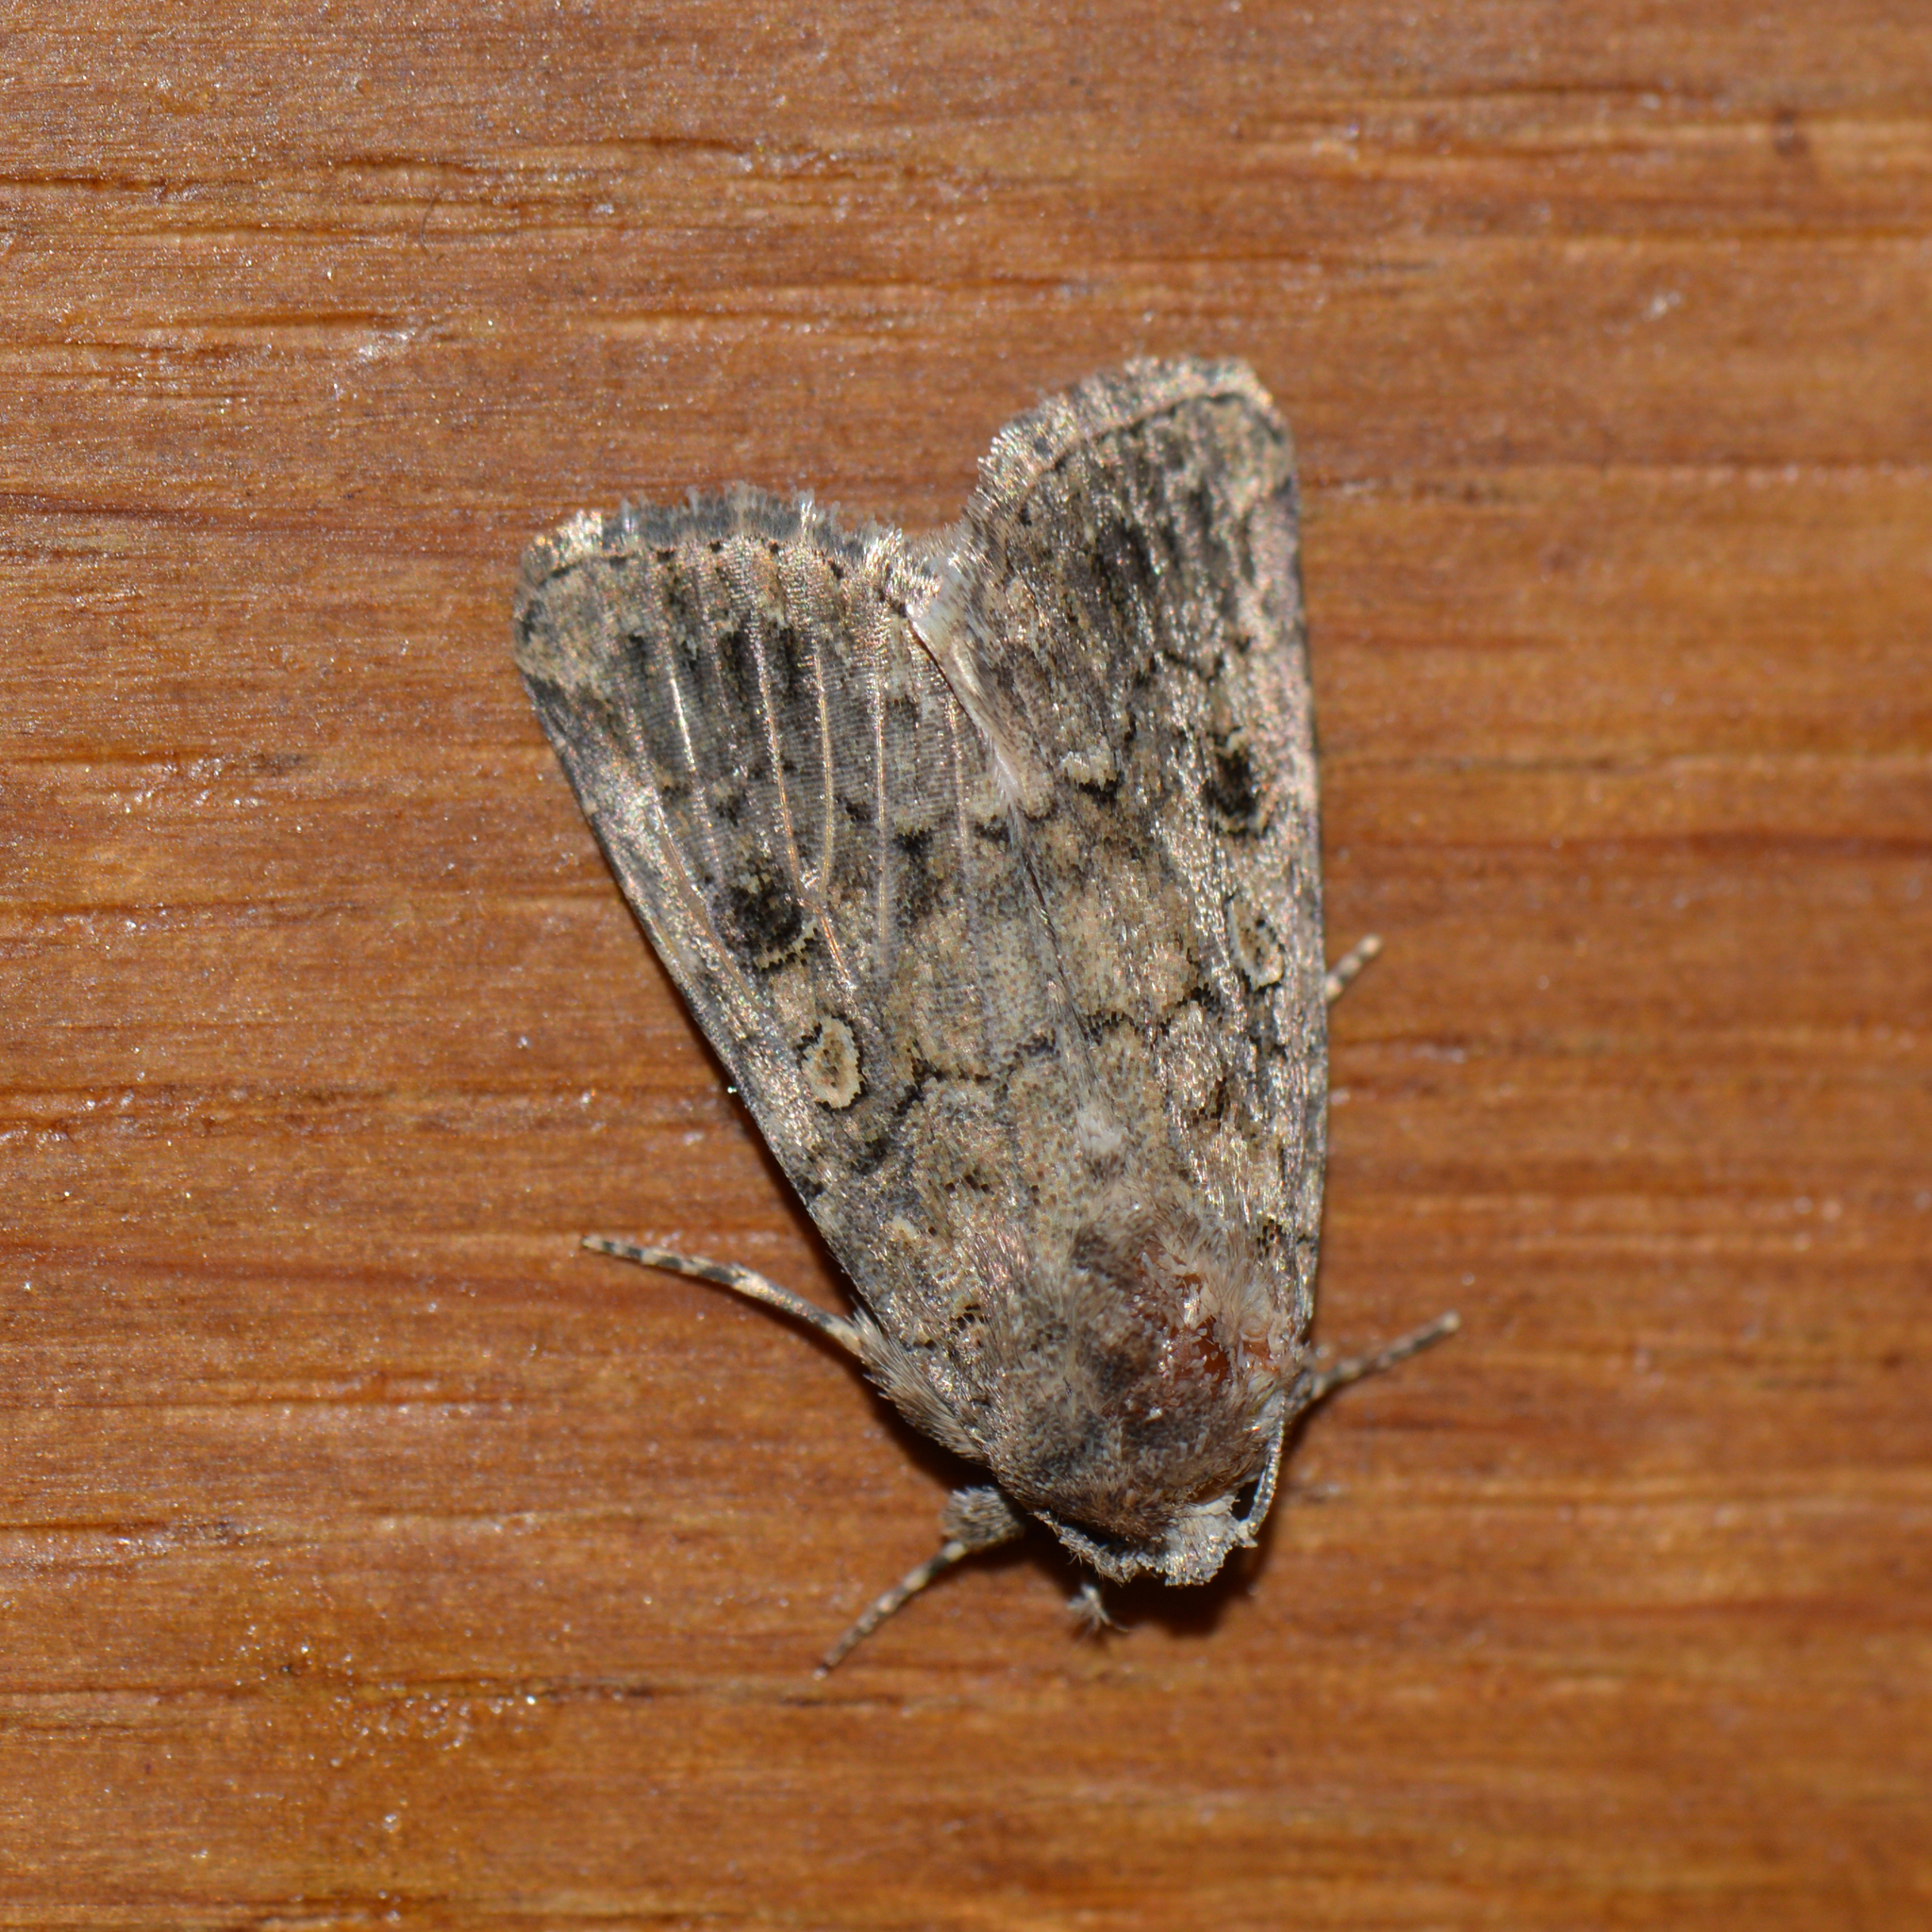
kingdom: Animalia
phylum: Arthropoda
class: Insecta
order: Lepidoptera
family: Noctuidae
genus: Spodoptera
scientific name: Spodoptera cilium
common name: Dark mottled willow
